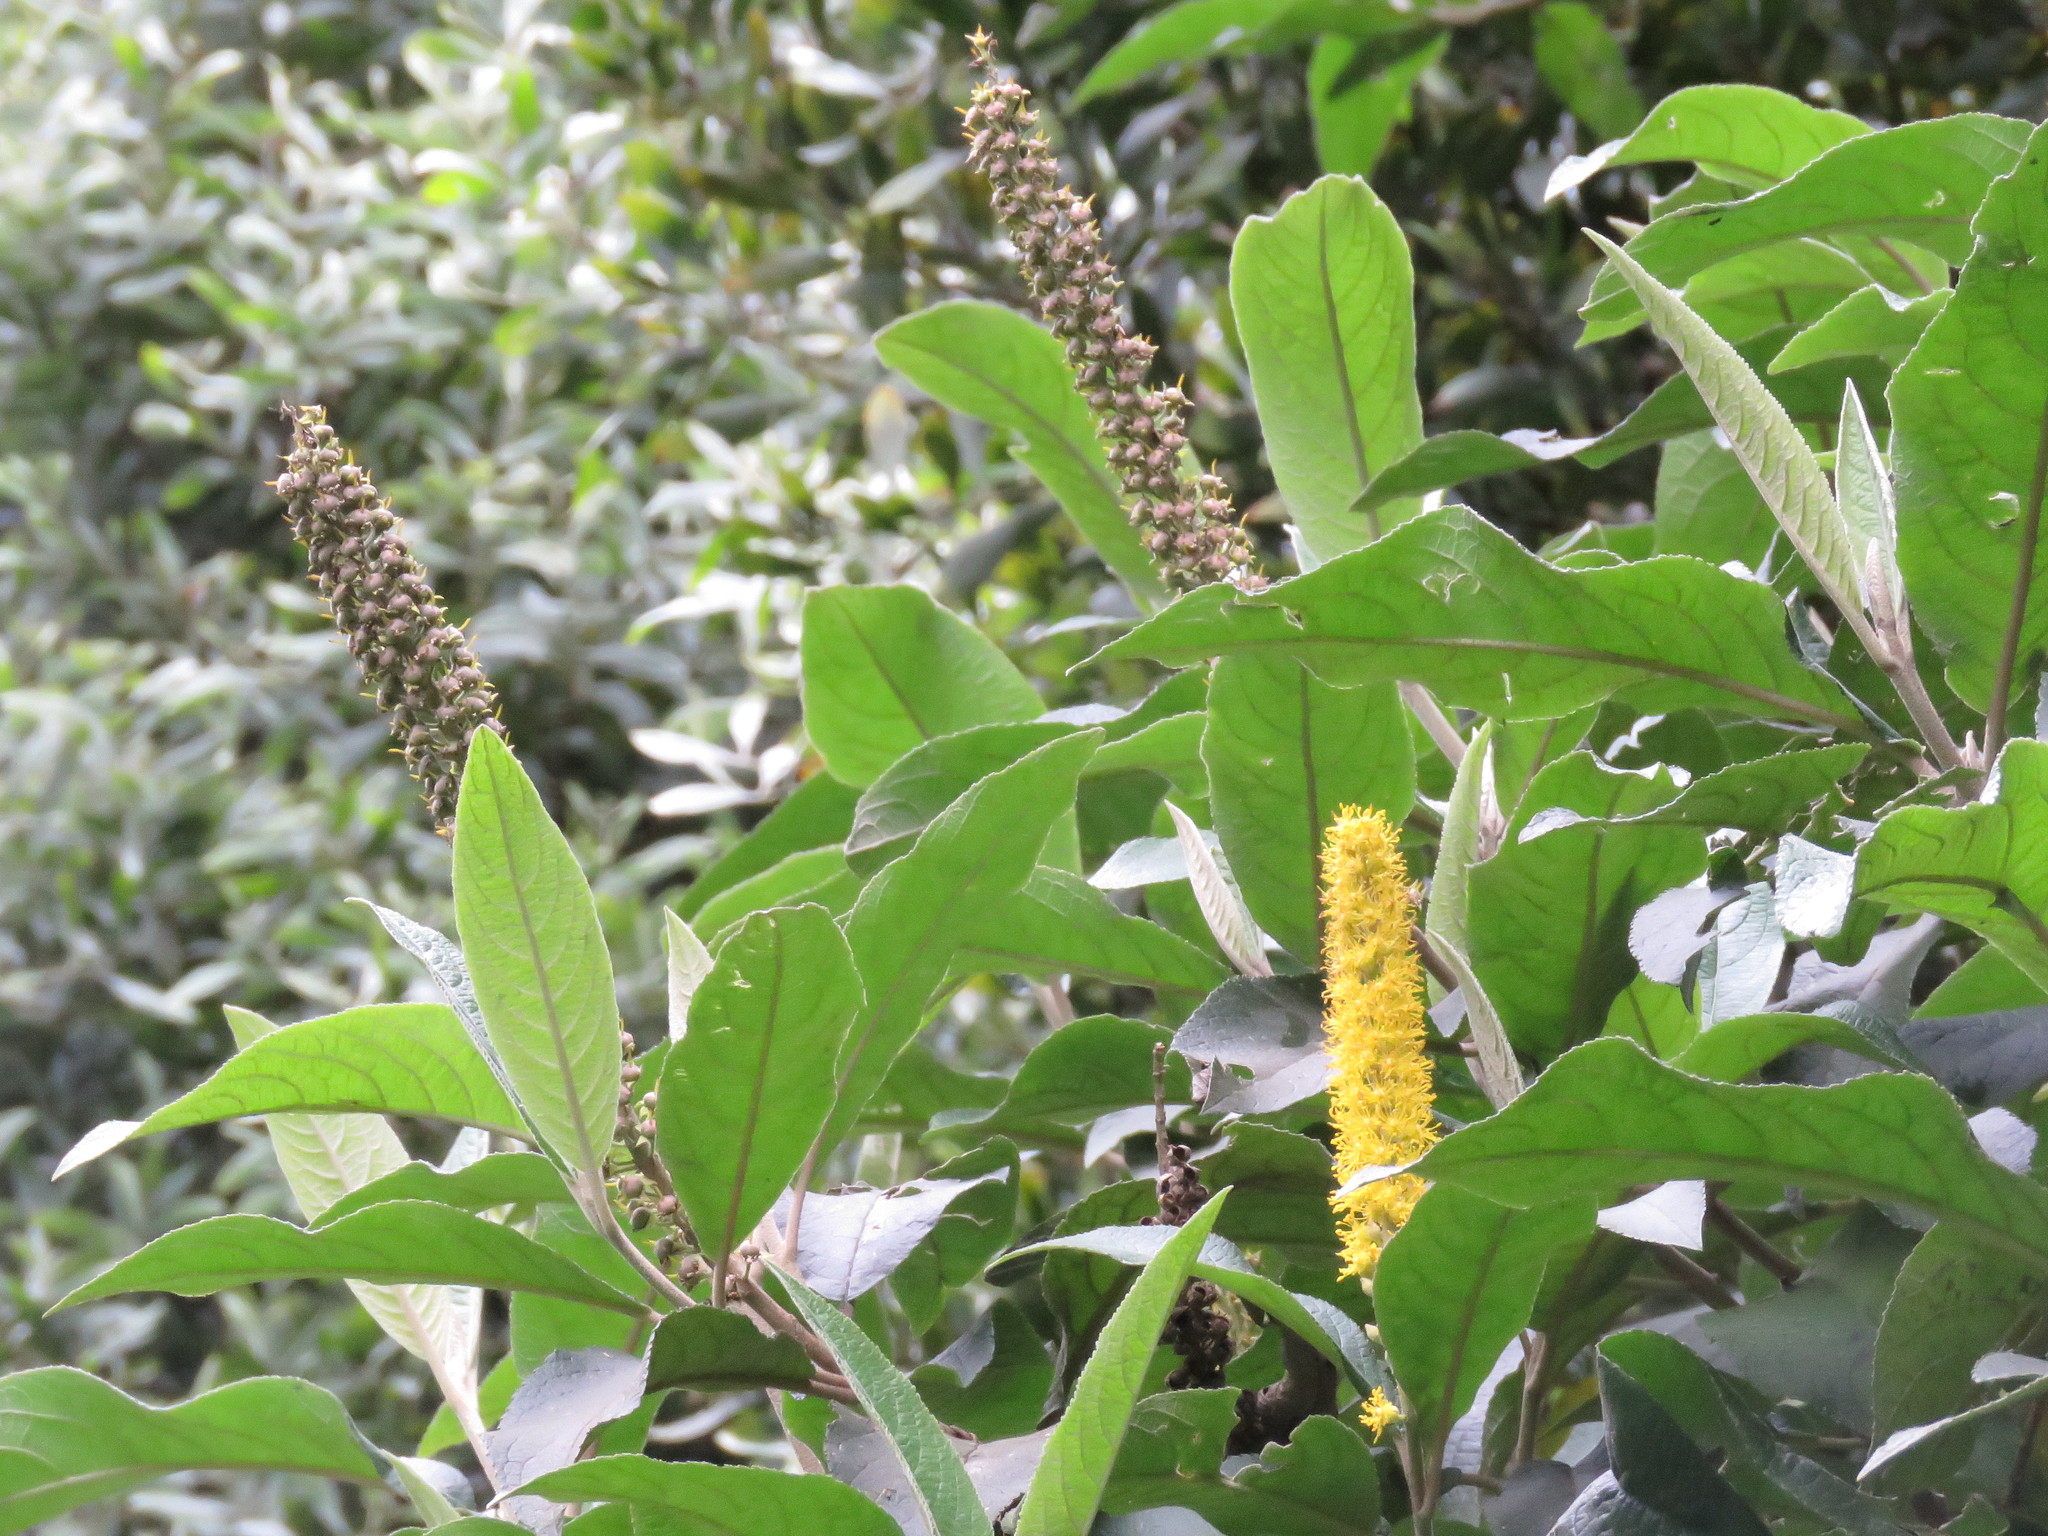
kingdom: Plantae
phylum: Tracheophyta
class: Magnoliopsida
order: Malpighiales
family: Salicaceae
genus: Abatia
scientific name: Abatia parviflora
